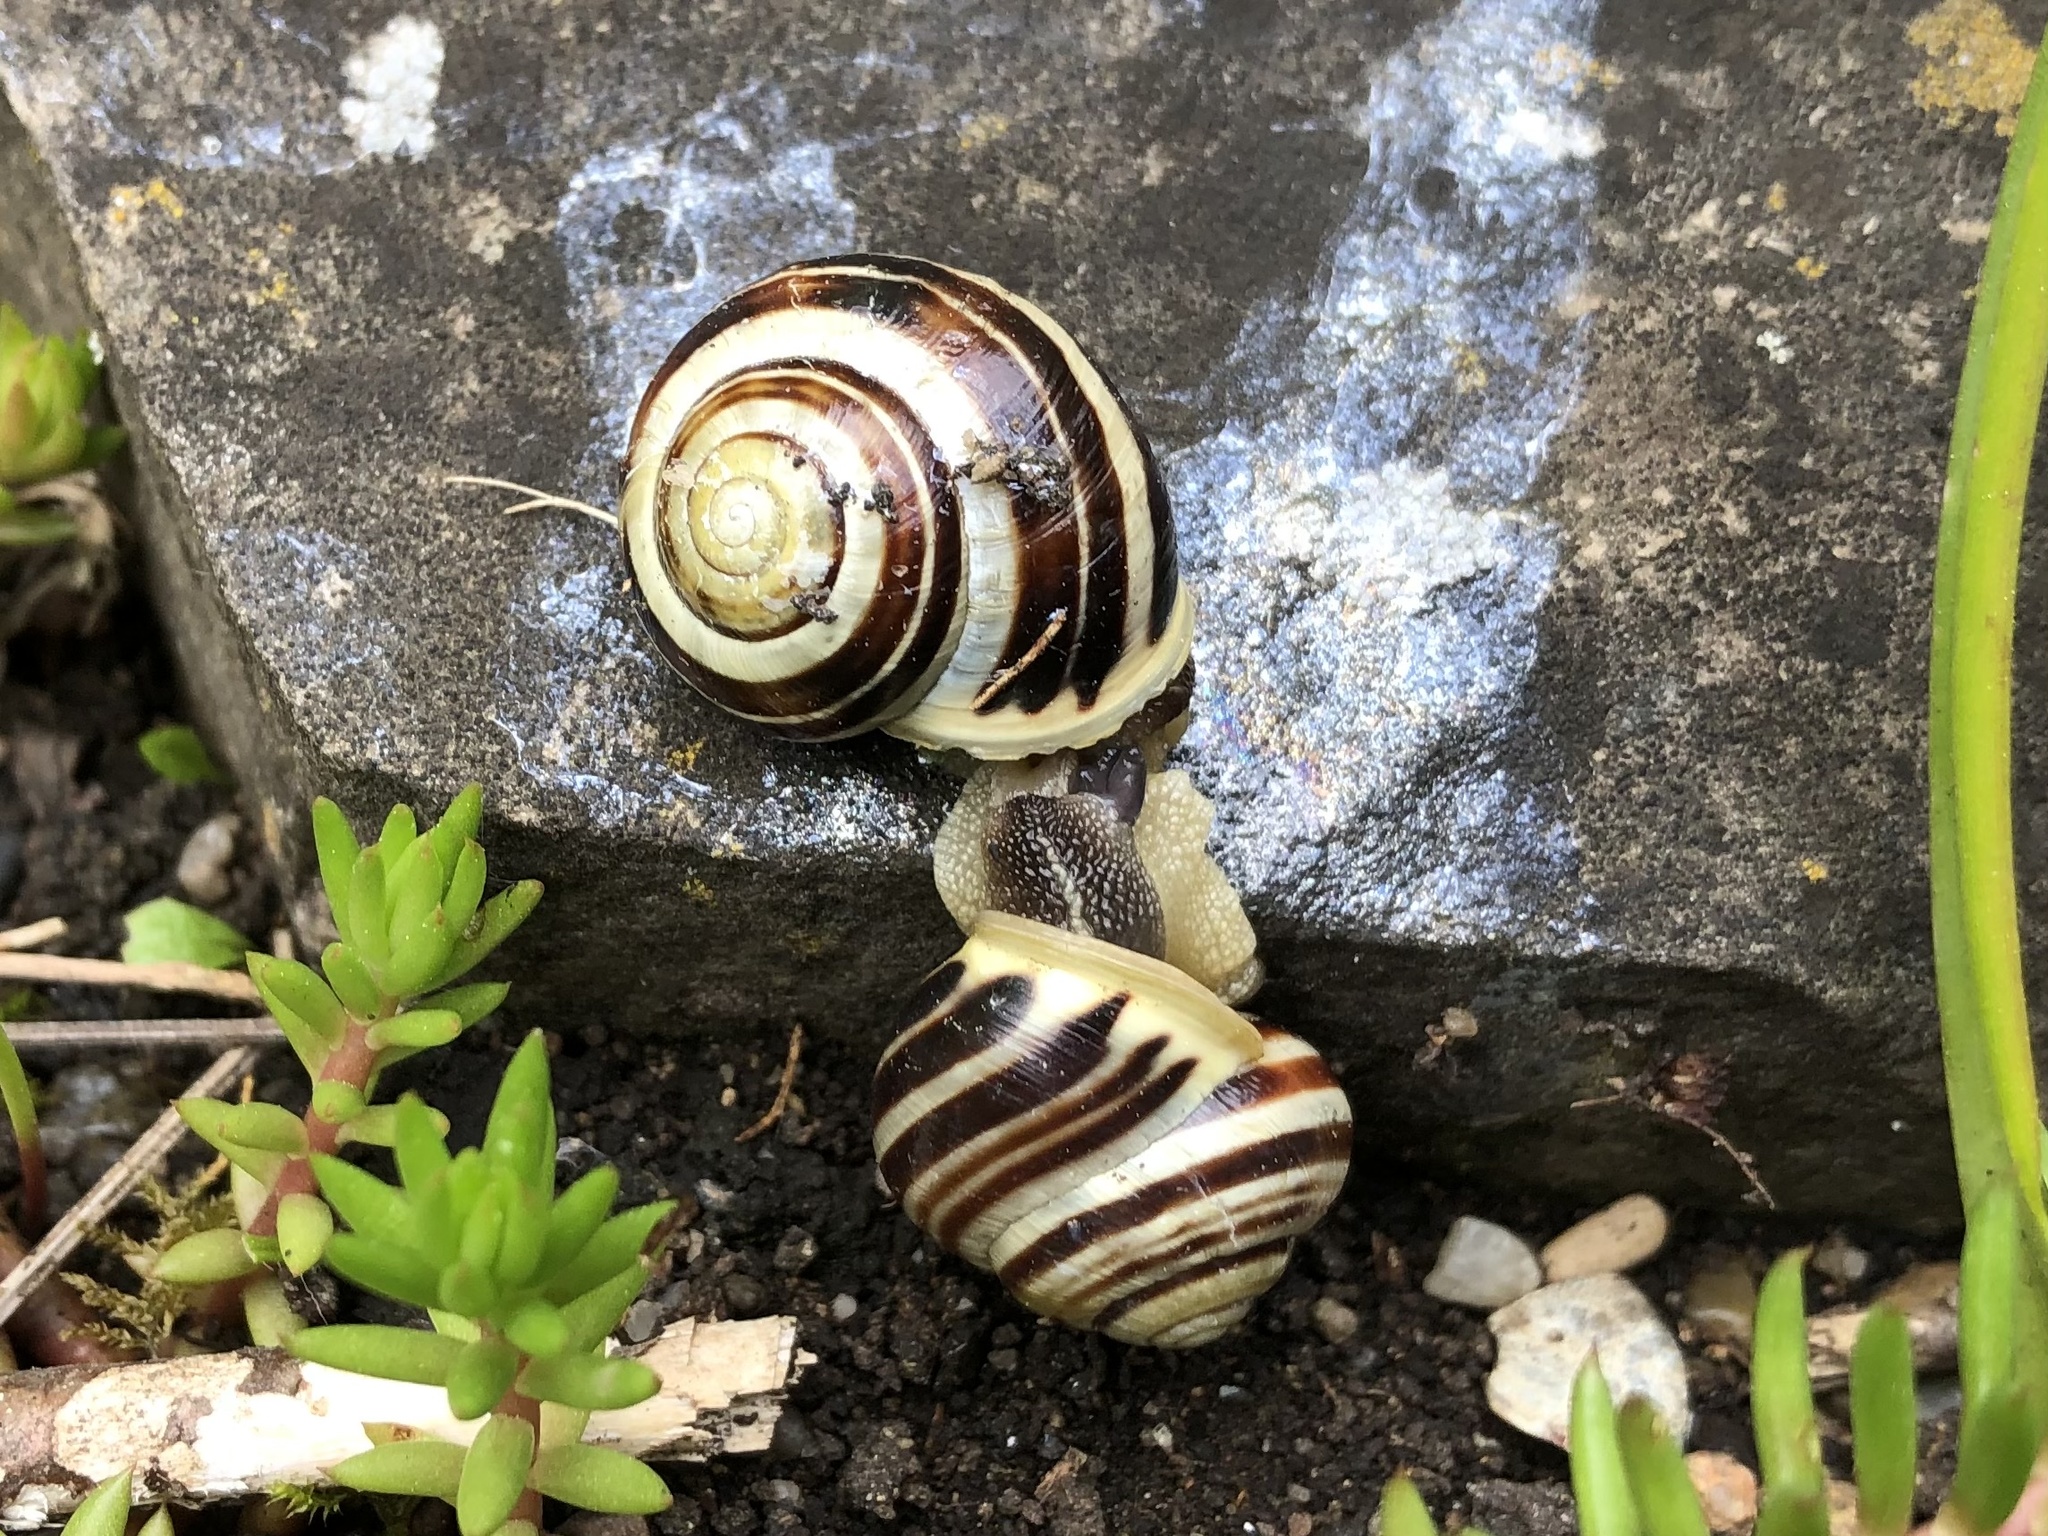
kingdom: Animalia
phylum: Mollusca
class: Gastropoda
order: Stylommatophora
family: Helicidae
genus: Cepaea
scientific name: Cepaea hortensis
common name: White-lip gardensnail
